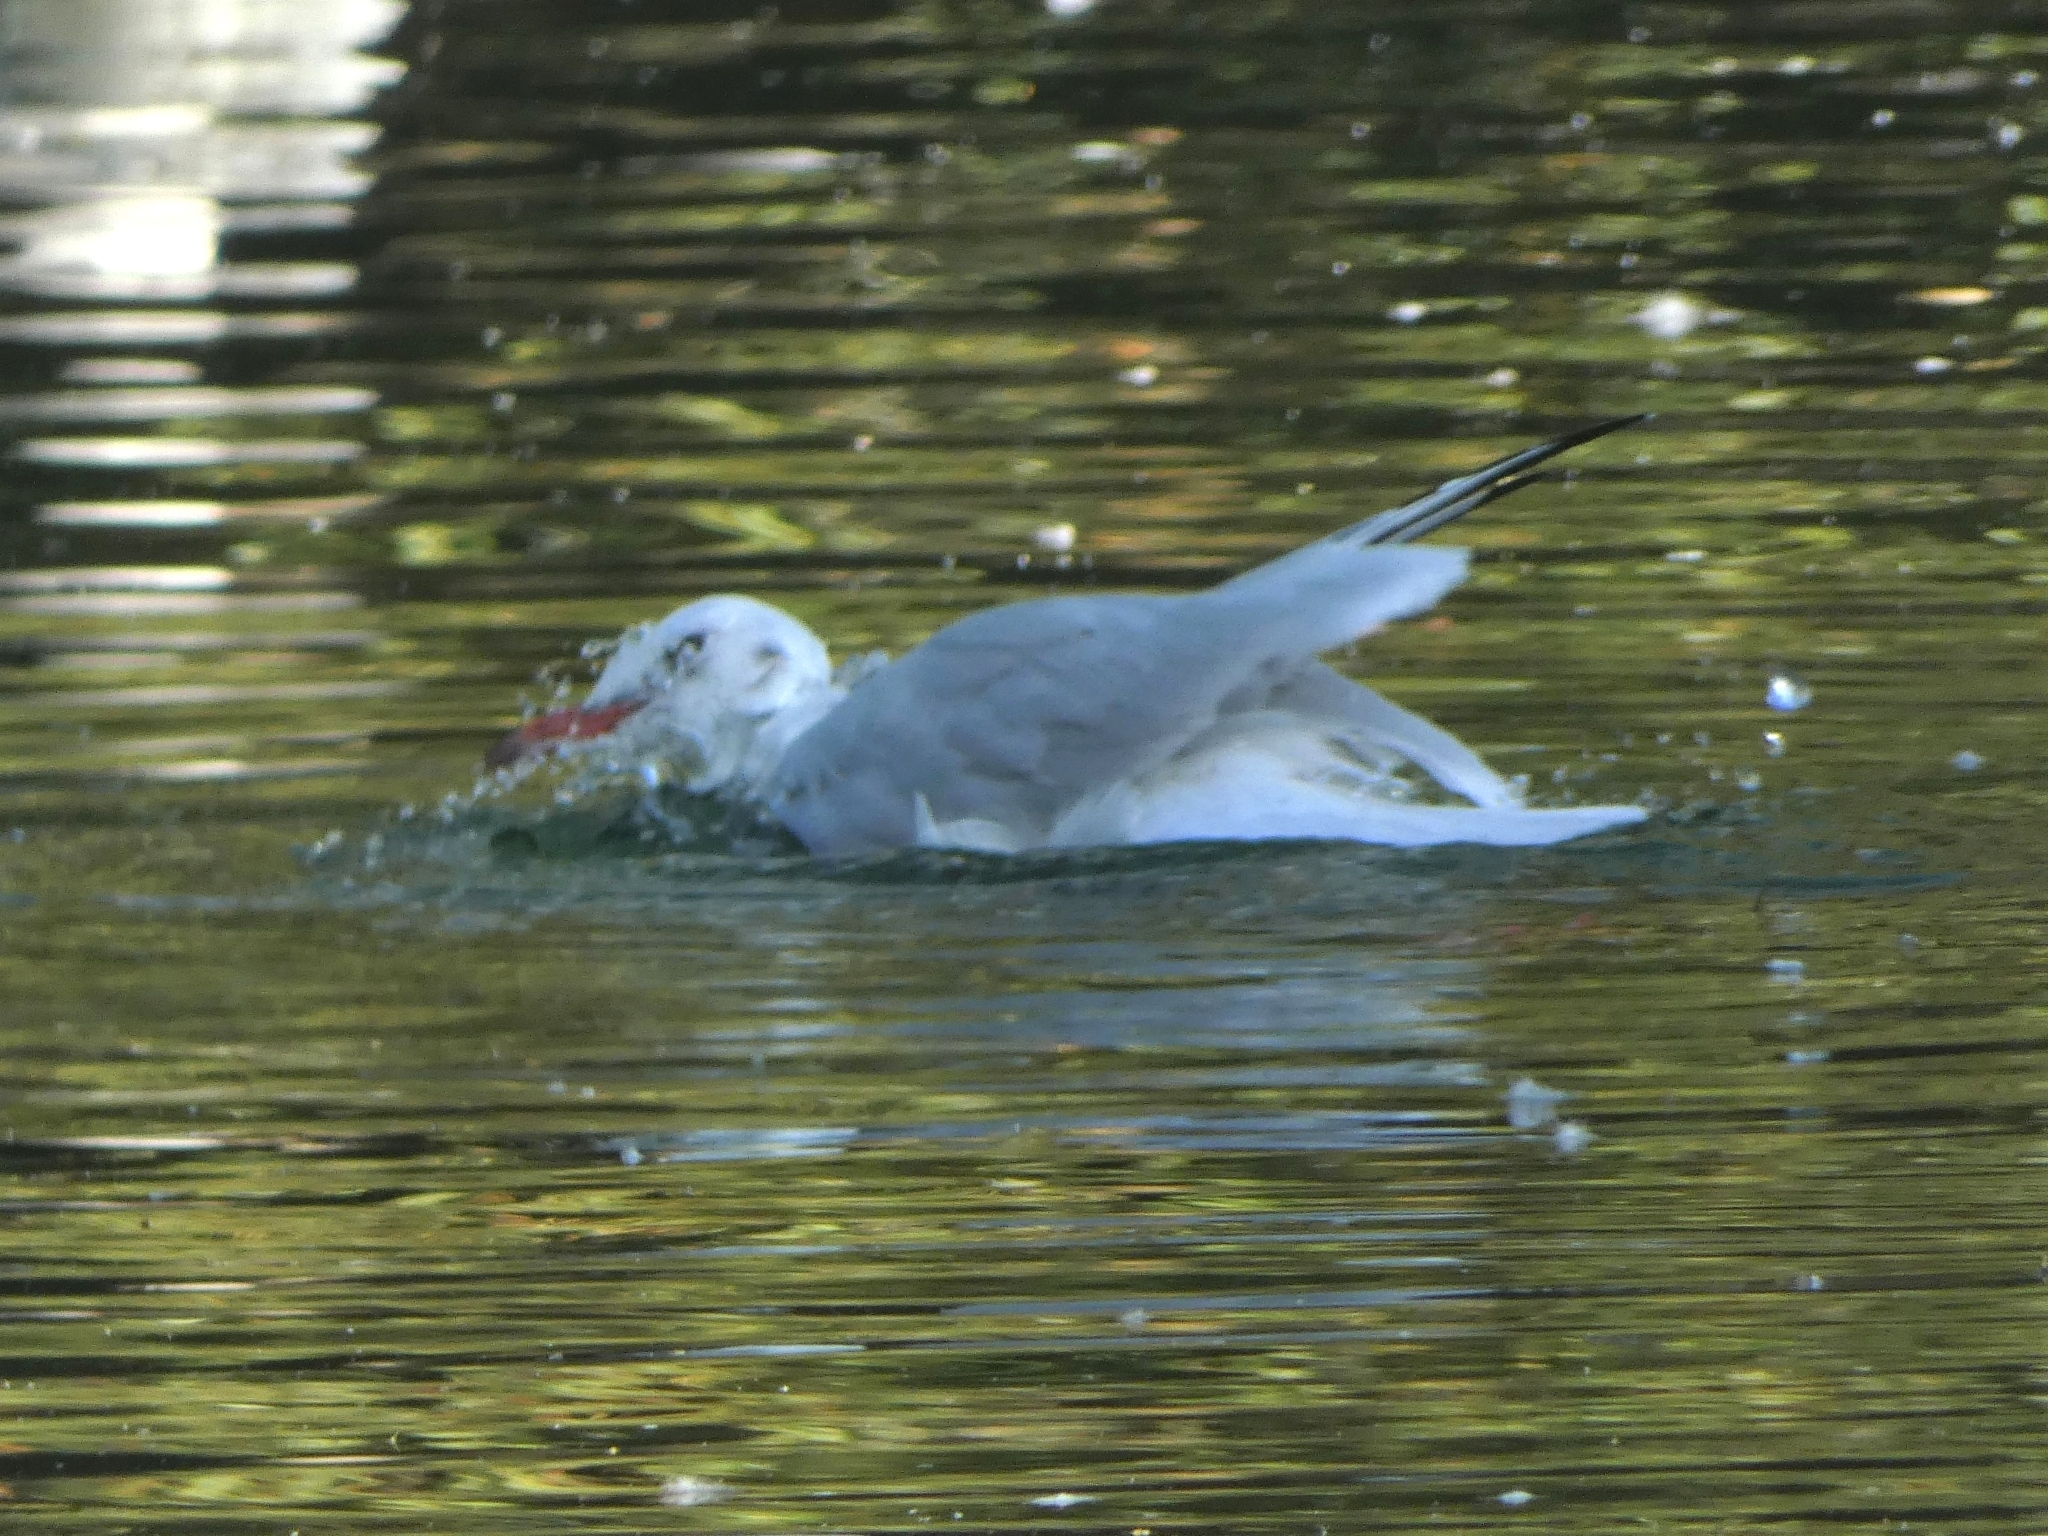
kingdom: Animalia
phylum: Chordata
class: Aves
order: Charadriiformes
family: Laridae
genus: Chroicocephalus
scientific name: Chroicocephalus ridibundus
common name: Black-headed gull
